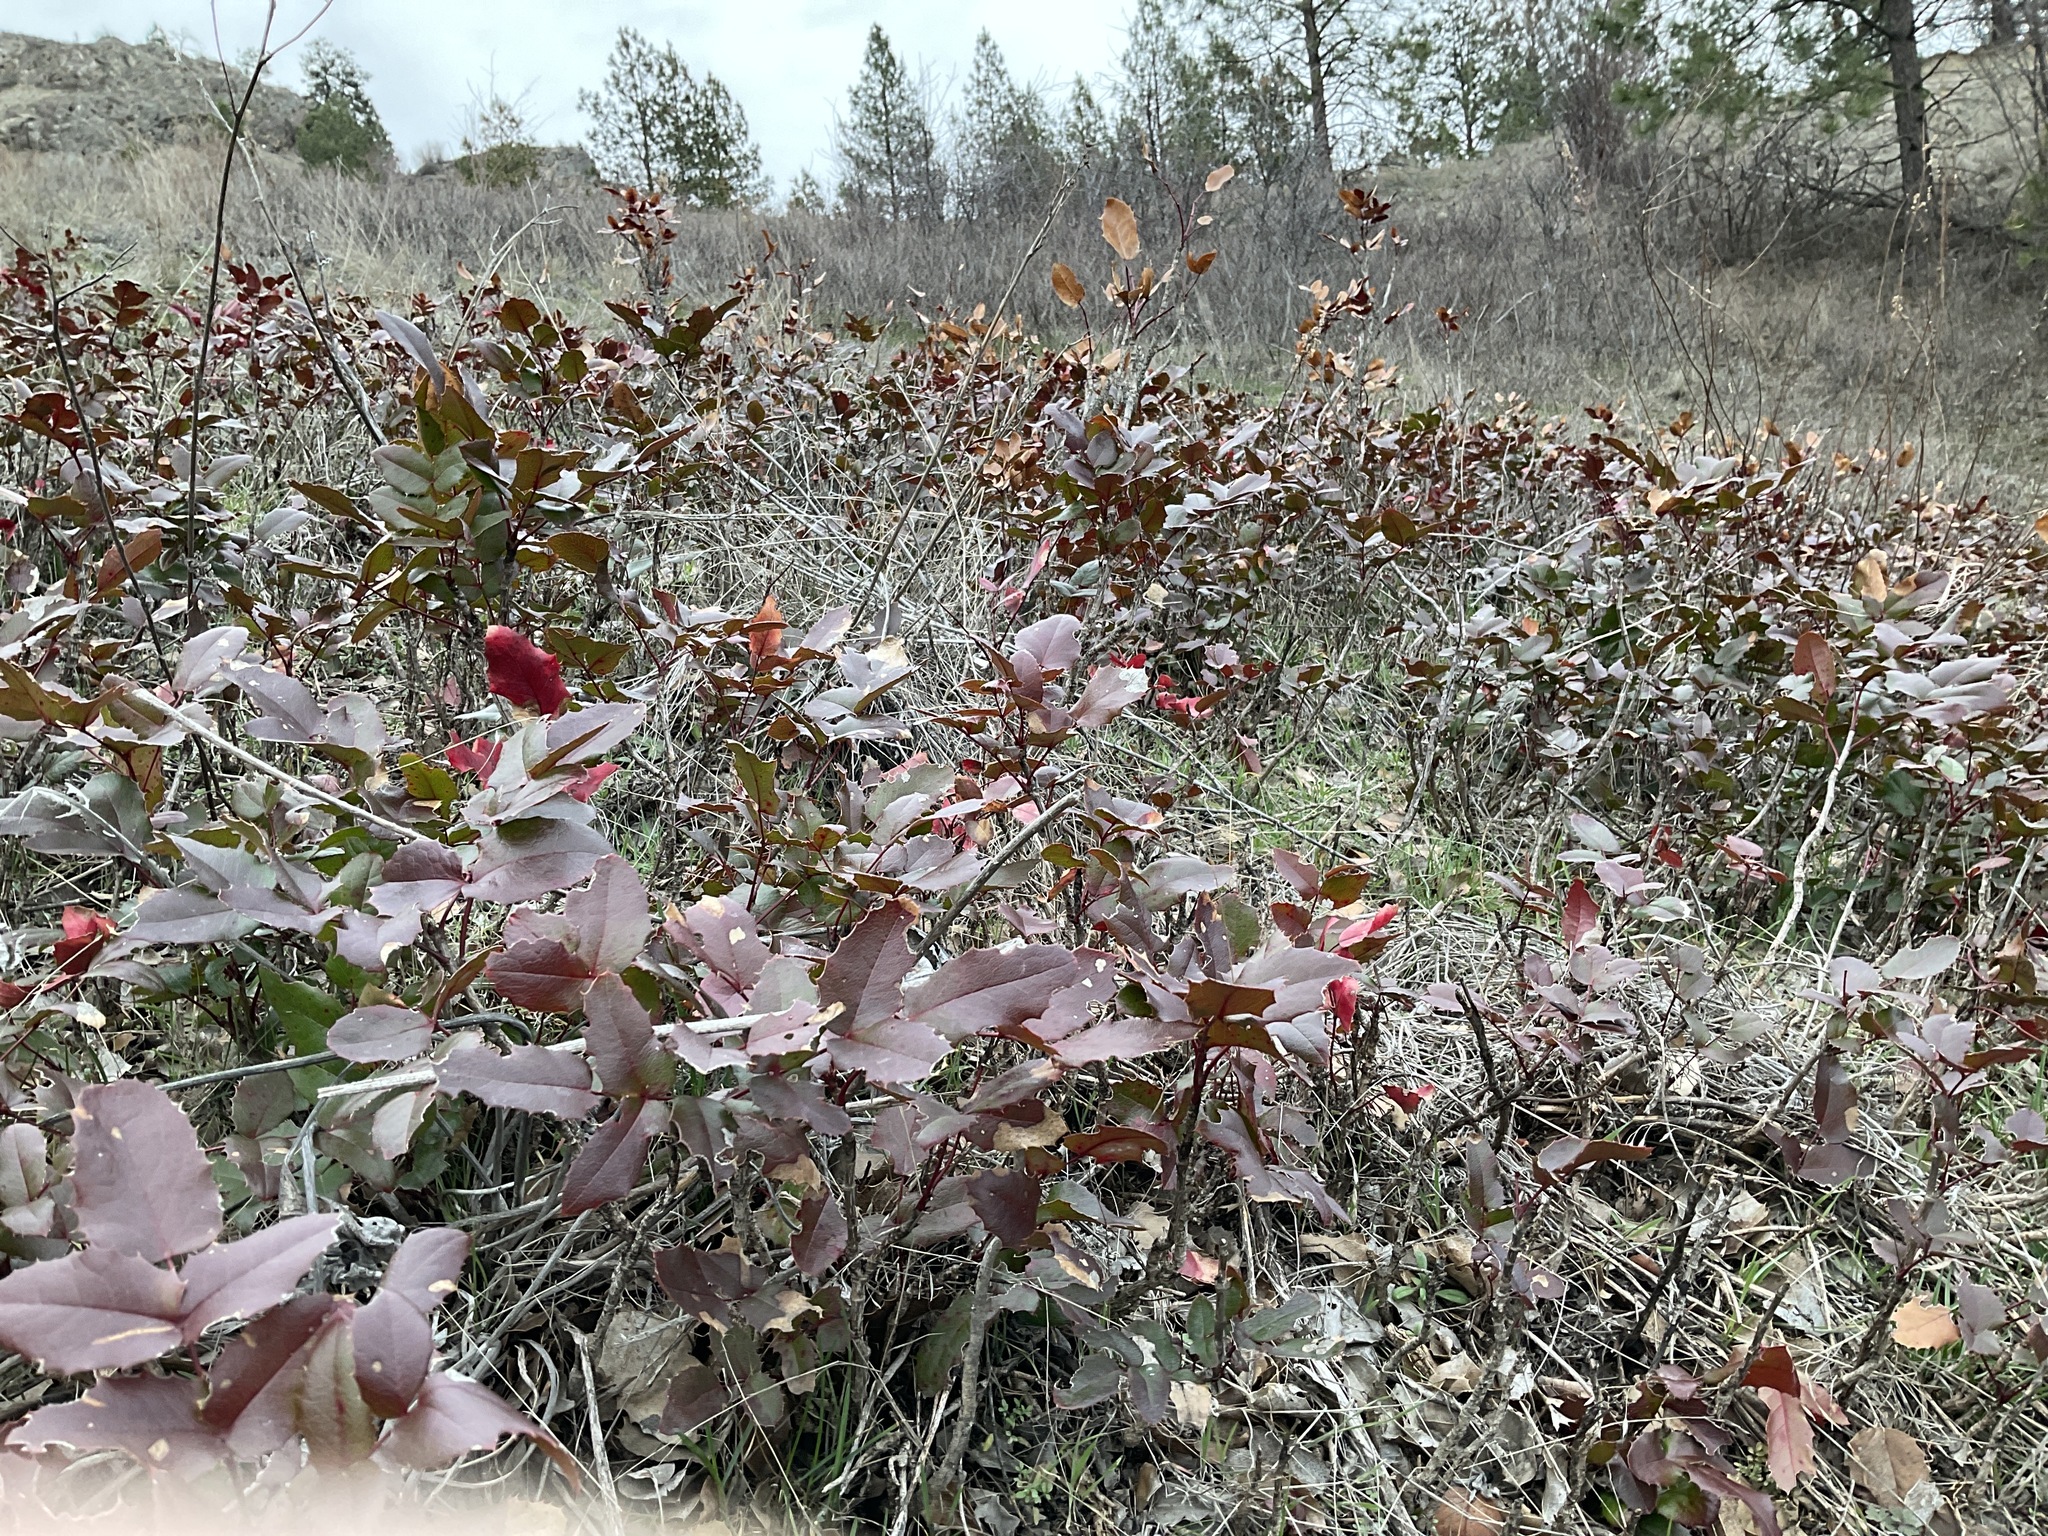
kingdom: Plantae
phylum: Tracheophyta
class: Magnoliopsida
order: Ranunculales
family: Berberidaceae
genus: Mahonia
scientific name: Mahonia aquifolium
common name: Oregon-grape
